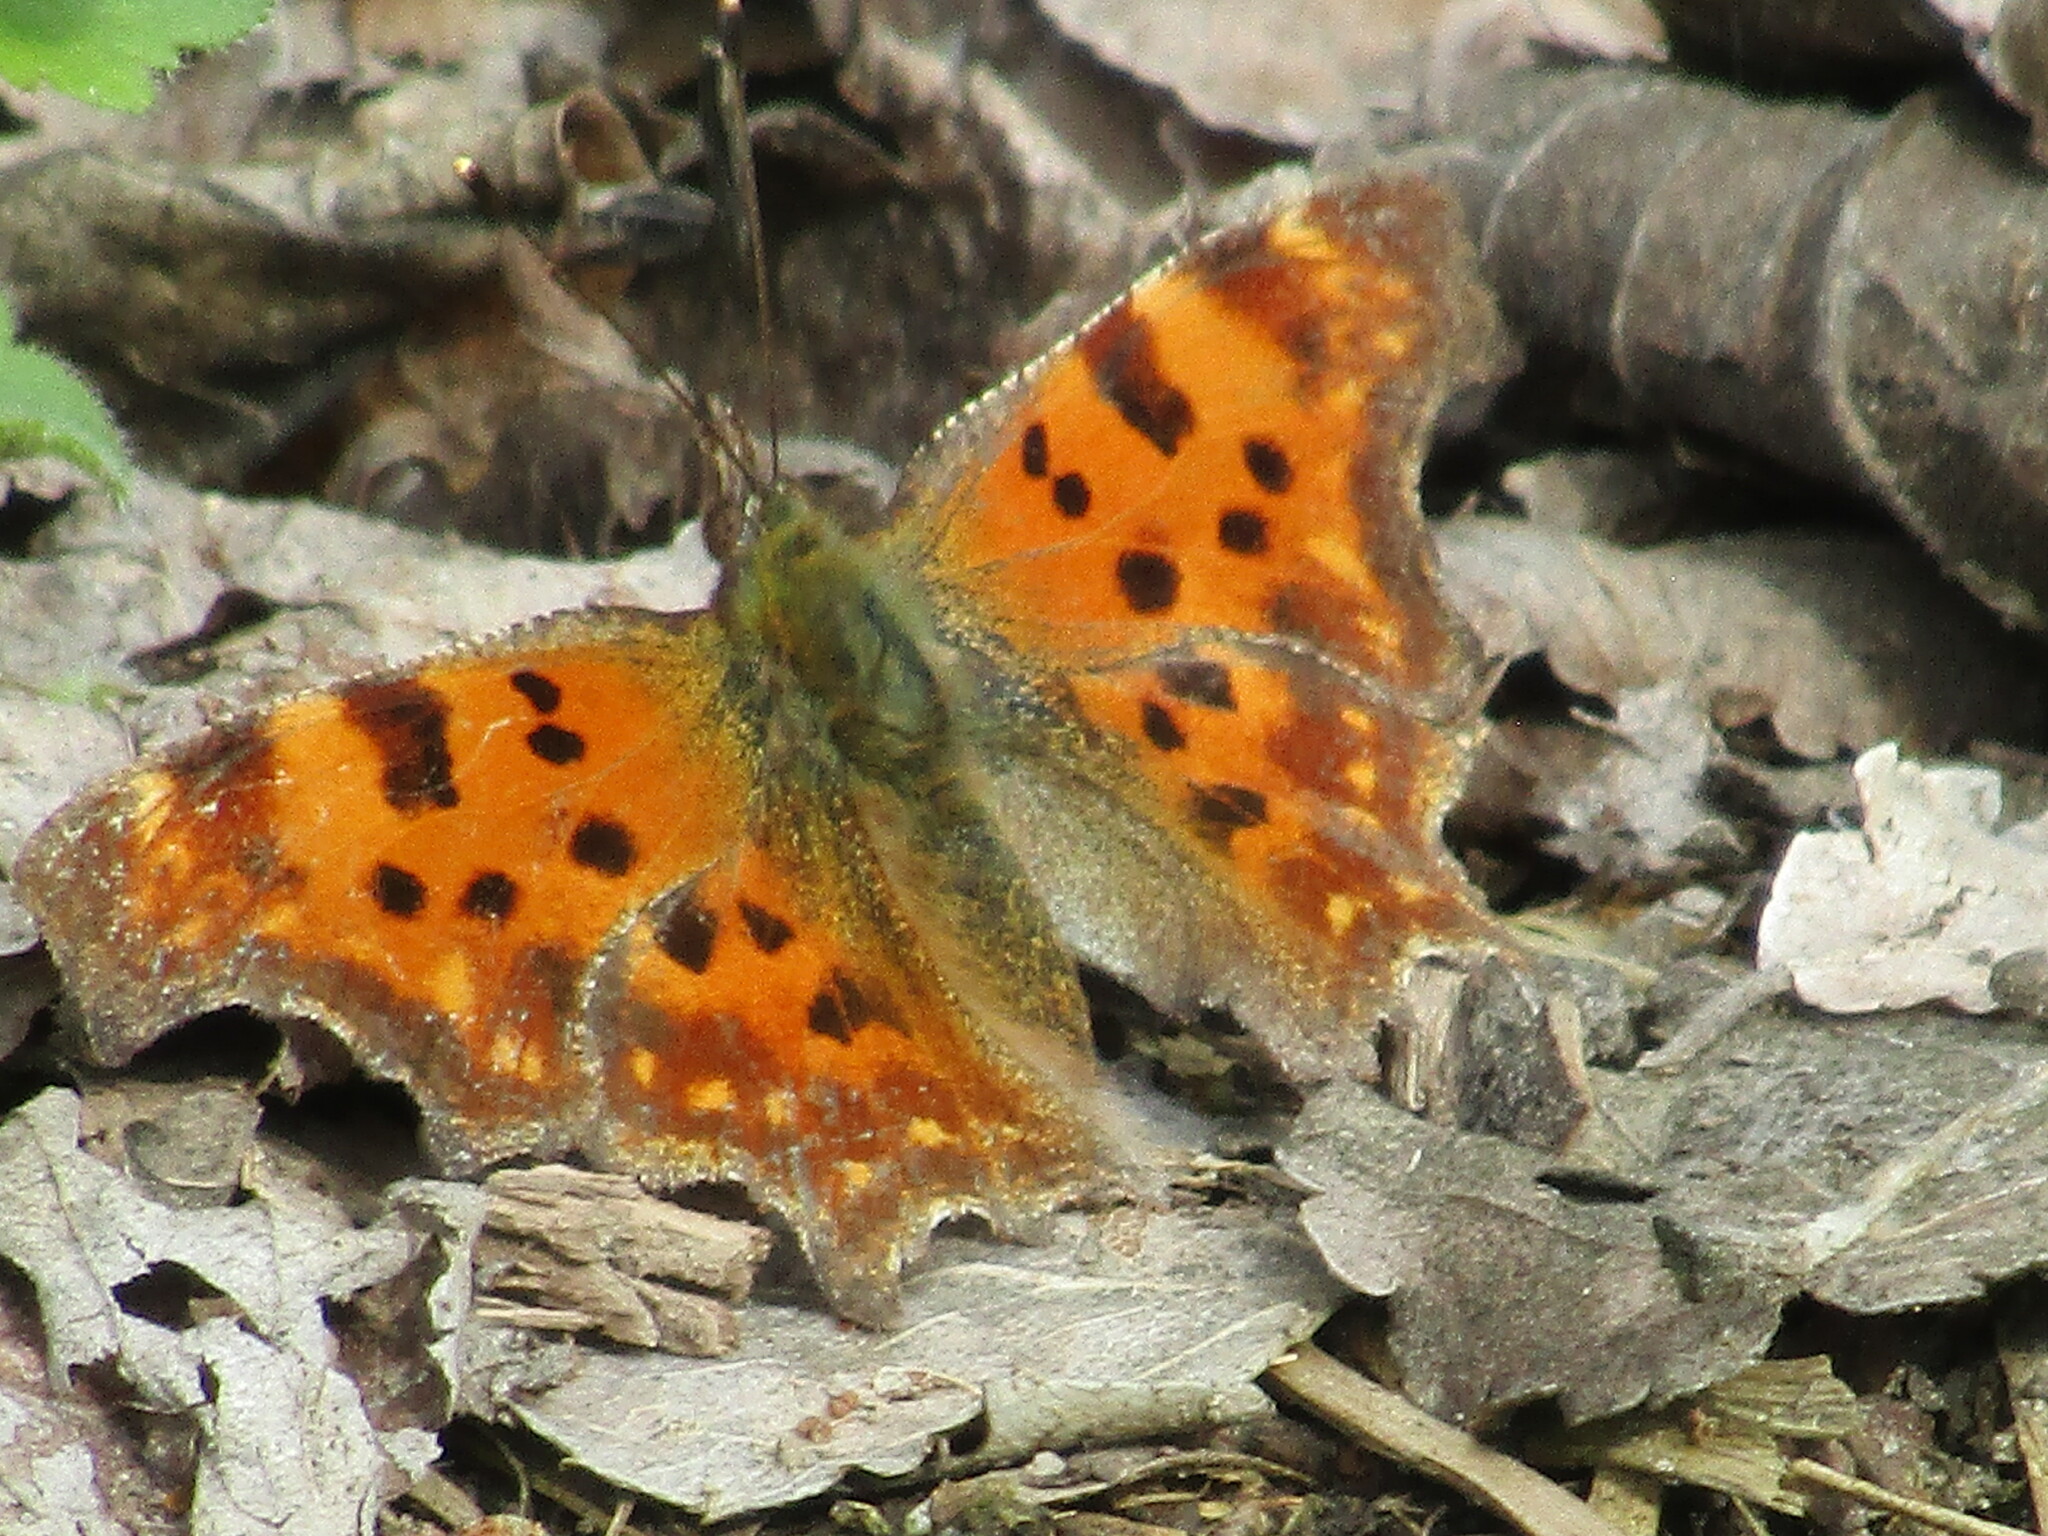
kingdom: Animalia
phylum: Arthropoda
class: Insecta
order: Lepidoptera
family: Nymphalidae
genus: Polygonia
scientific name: Polygonia c-album
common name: Comma
